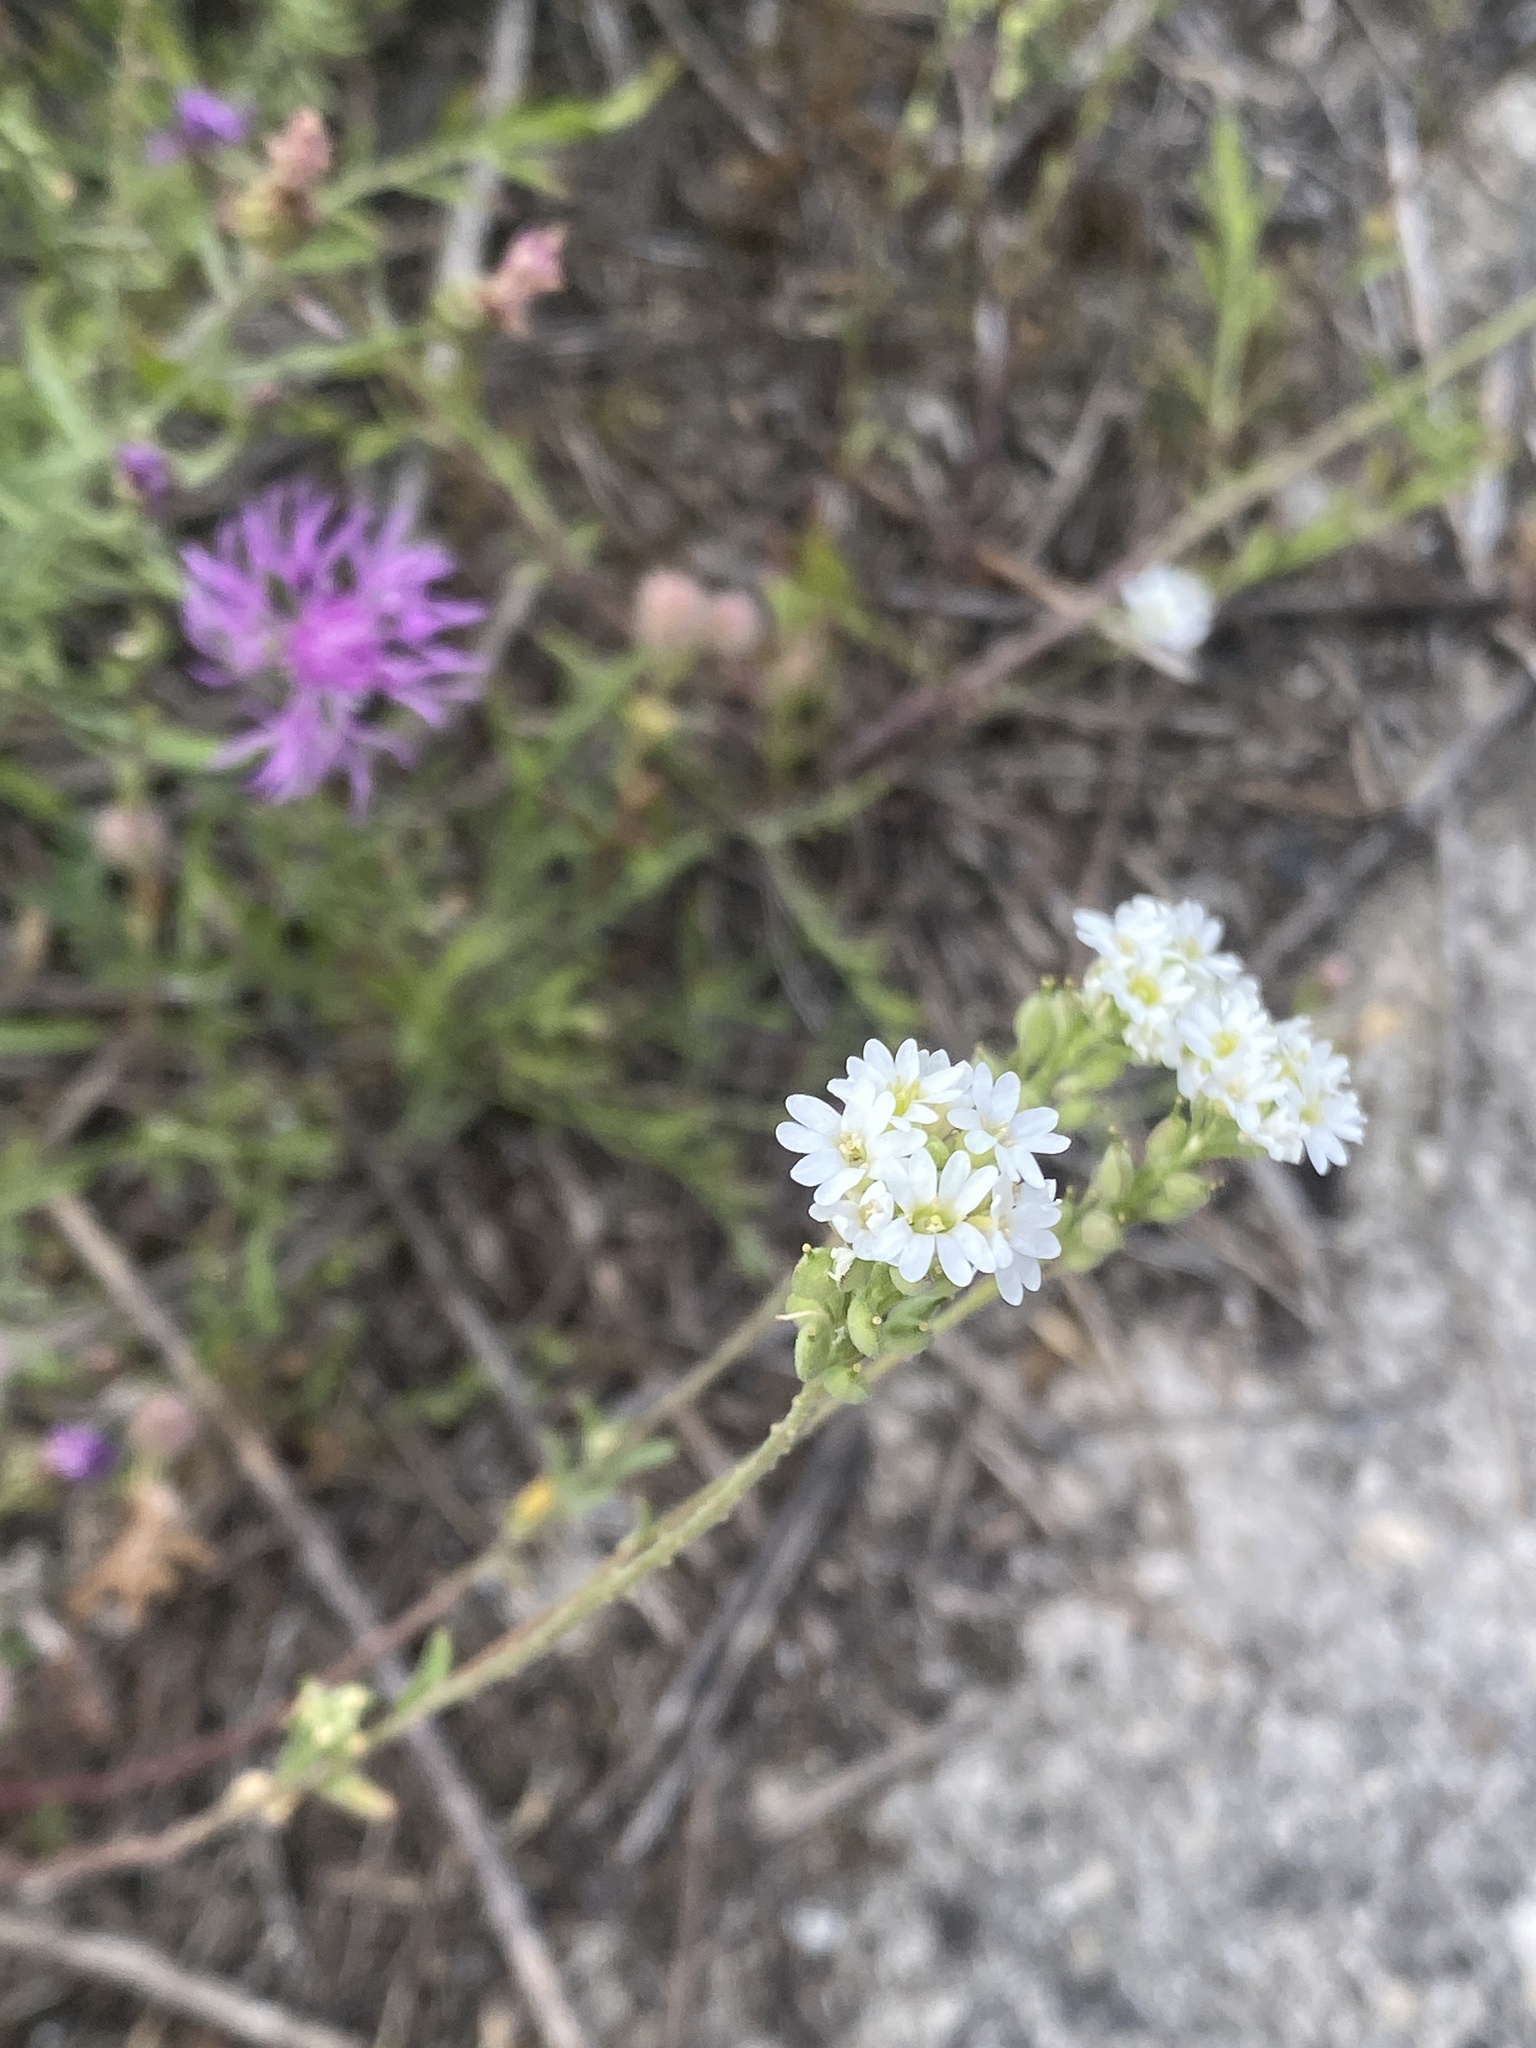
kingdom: Plantae
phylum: Tracheophyta
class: Magnoliopsida
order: Brassicales
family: Brassicaceae
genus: Berteroa
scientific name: Berteroa incana
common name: Hoary alison
